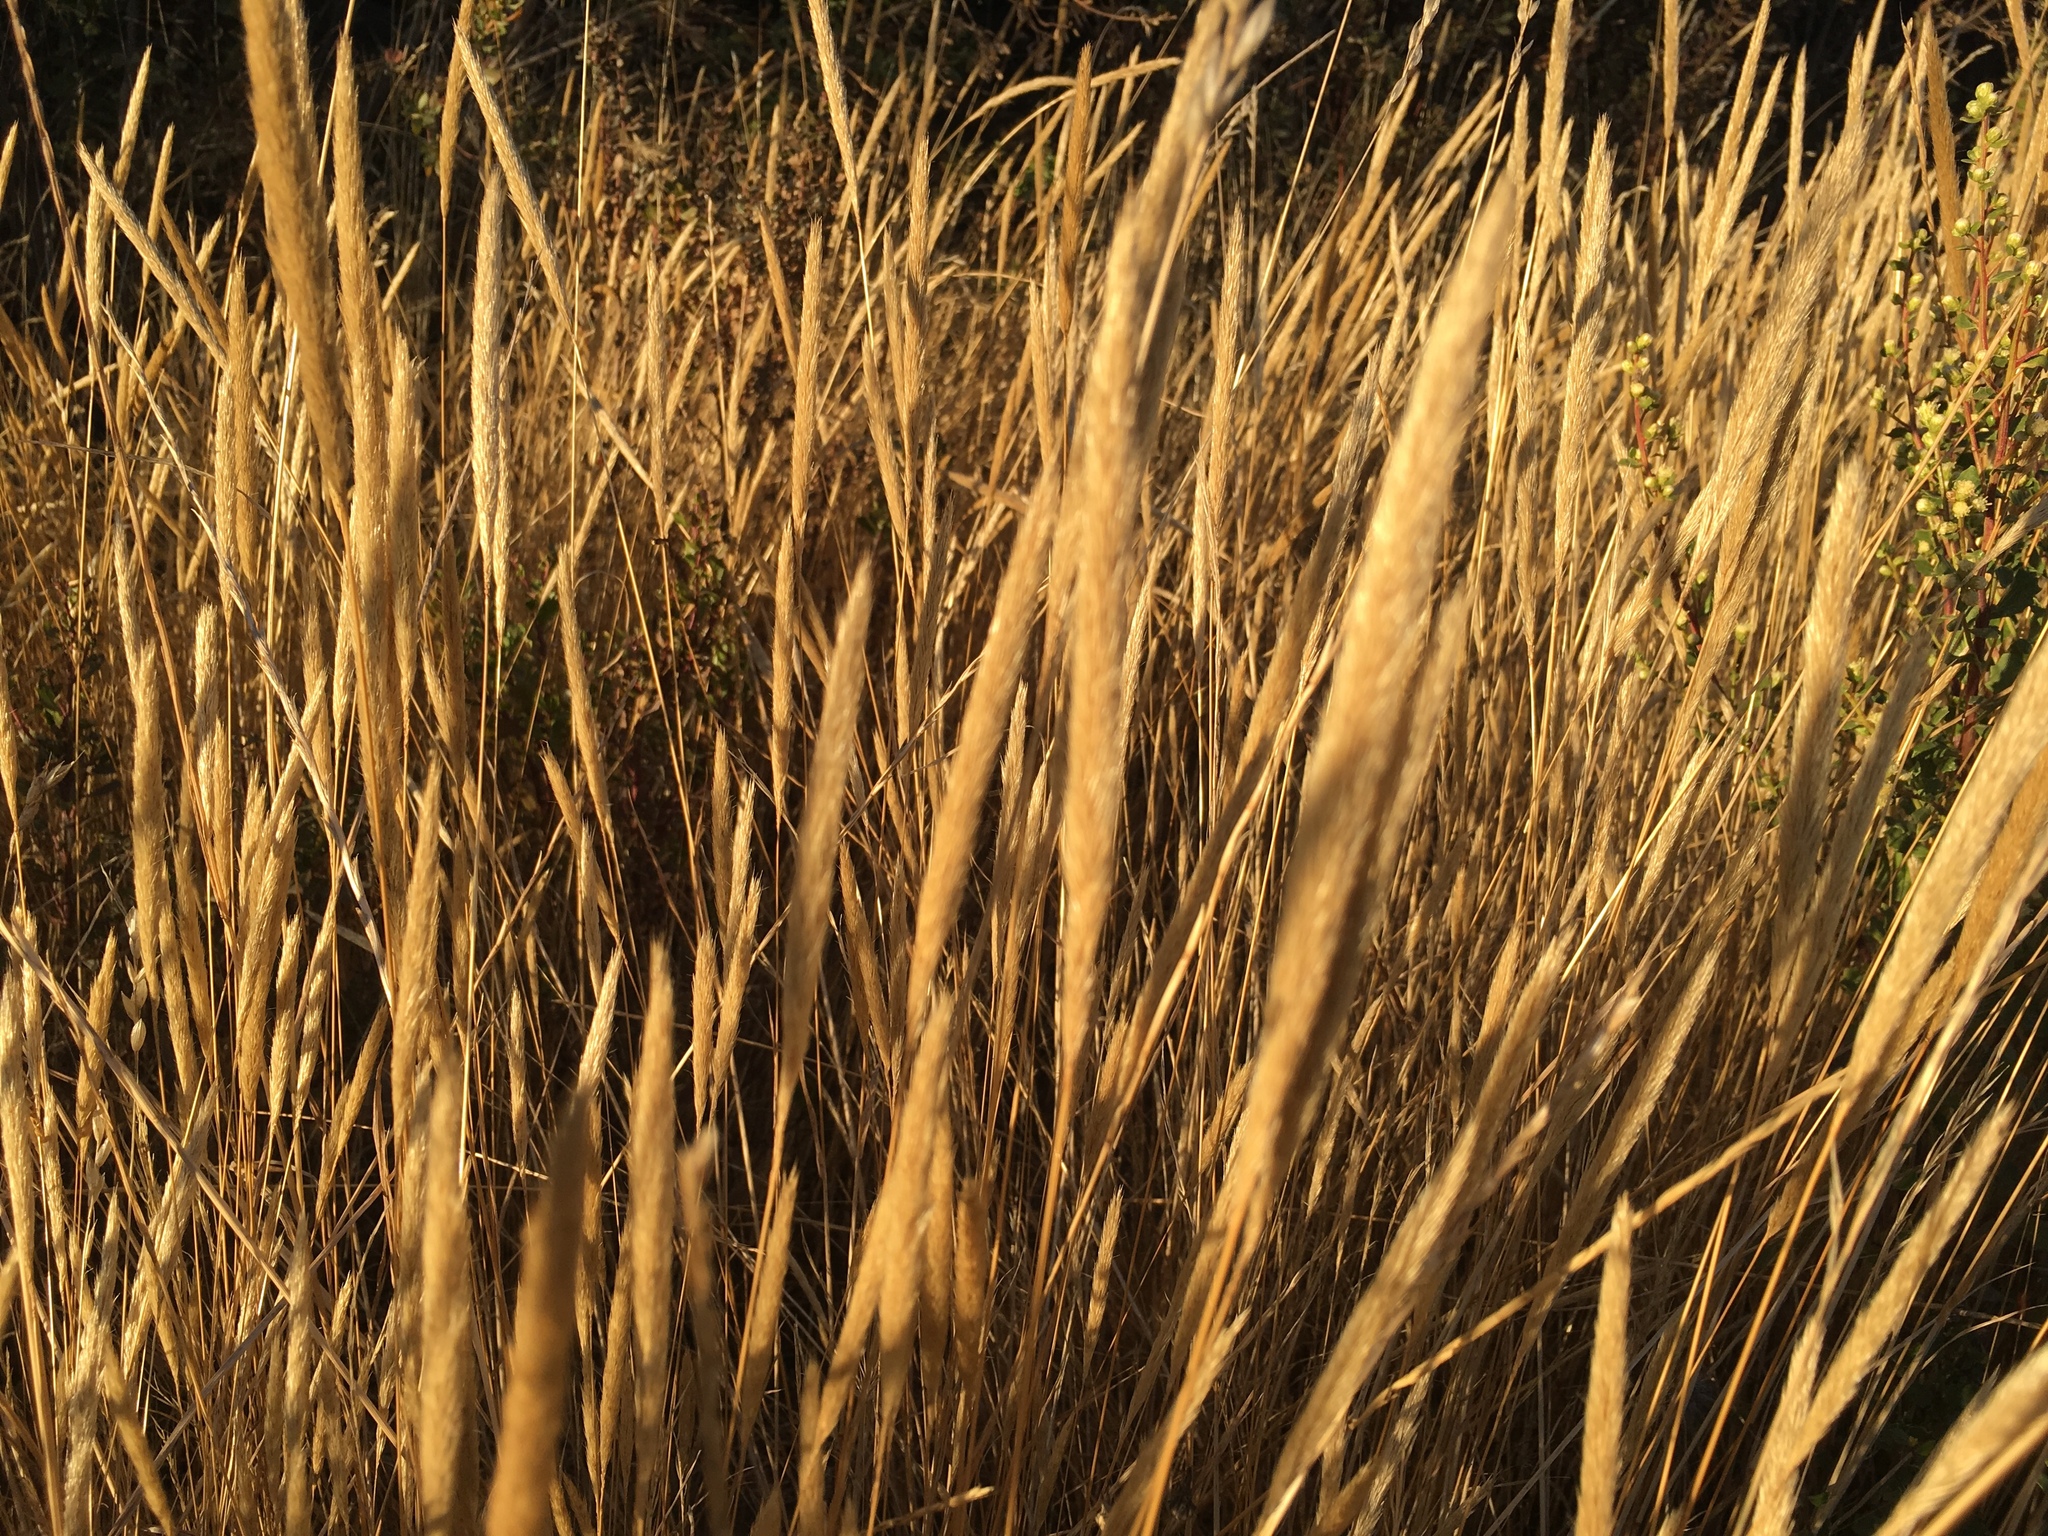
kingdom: Plantae
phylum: Tracheophyta
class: Liliopsida
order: Poales
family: Poaceae
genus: Gastridium
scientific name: Gastridium phleoides
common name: Nit grass
